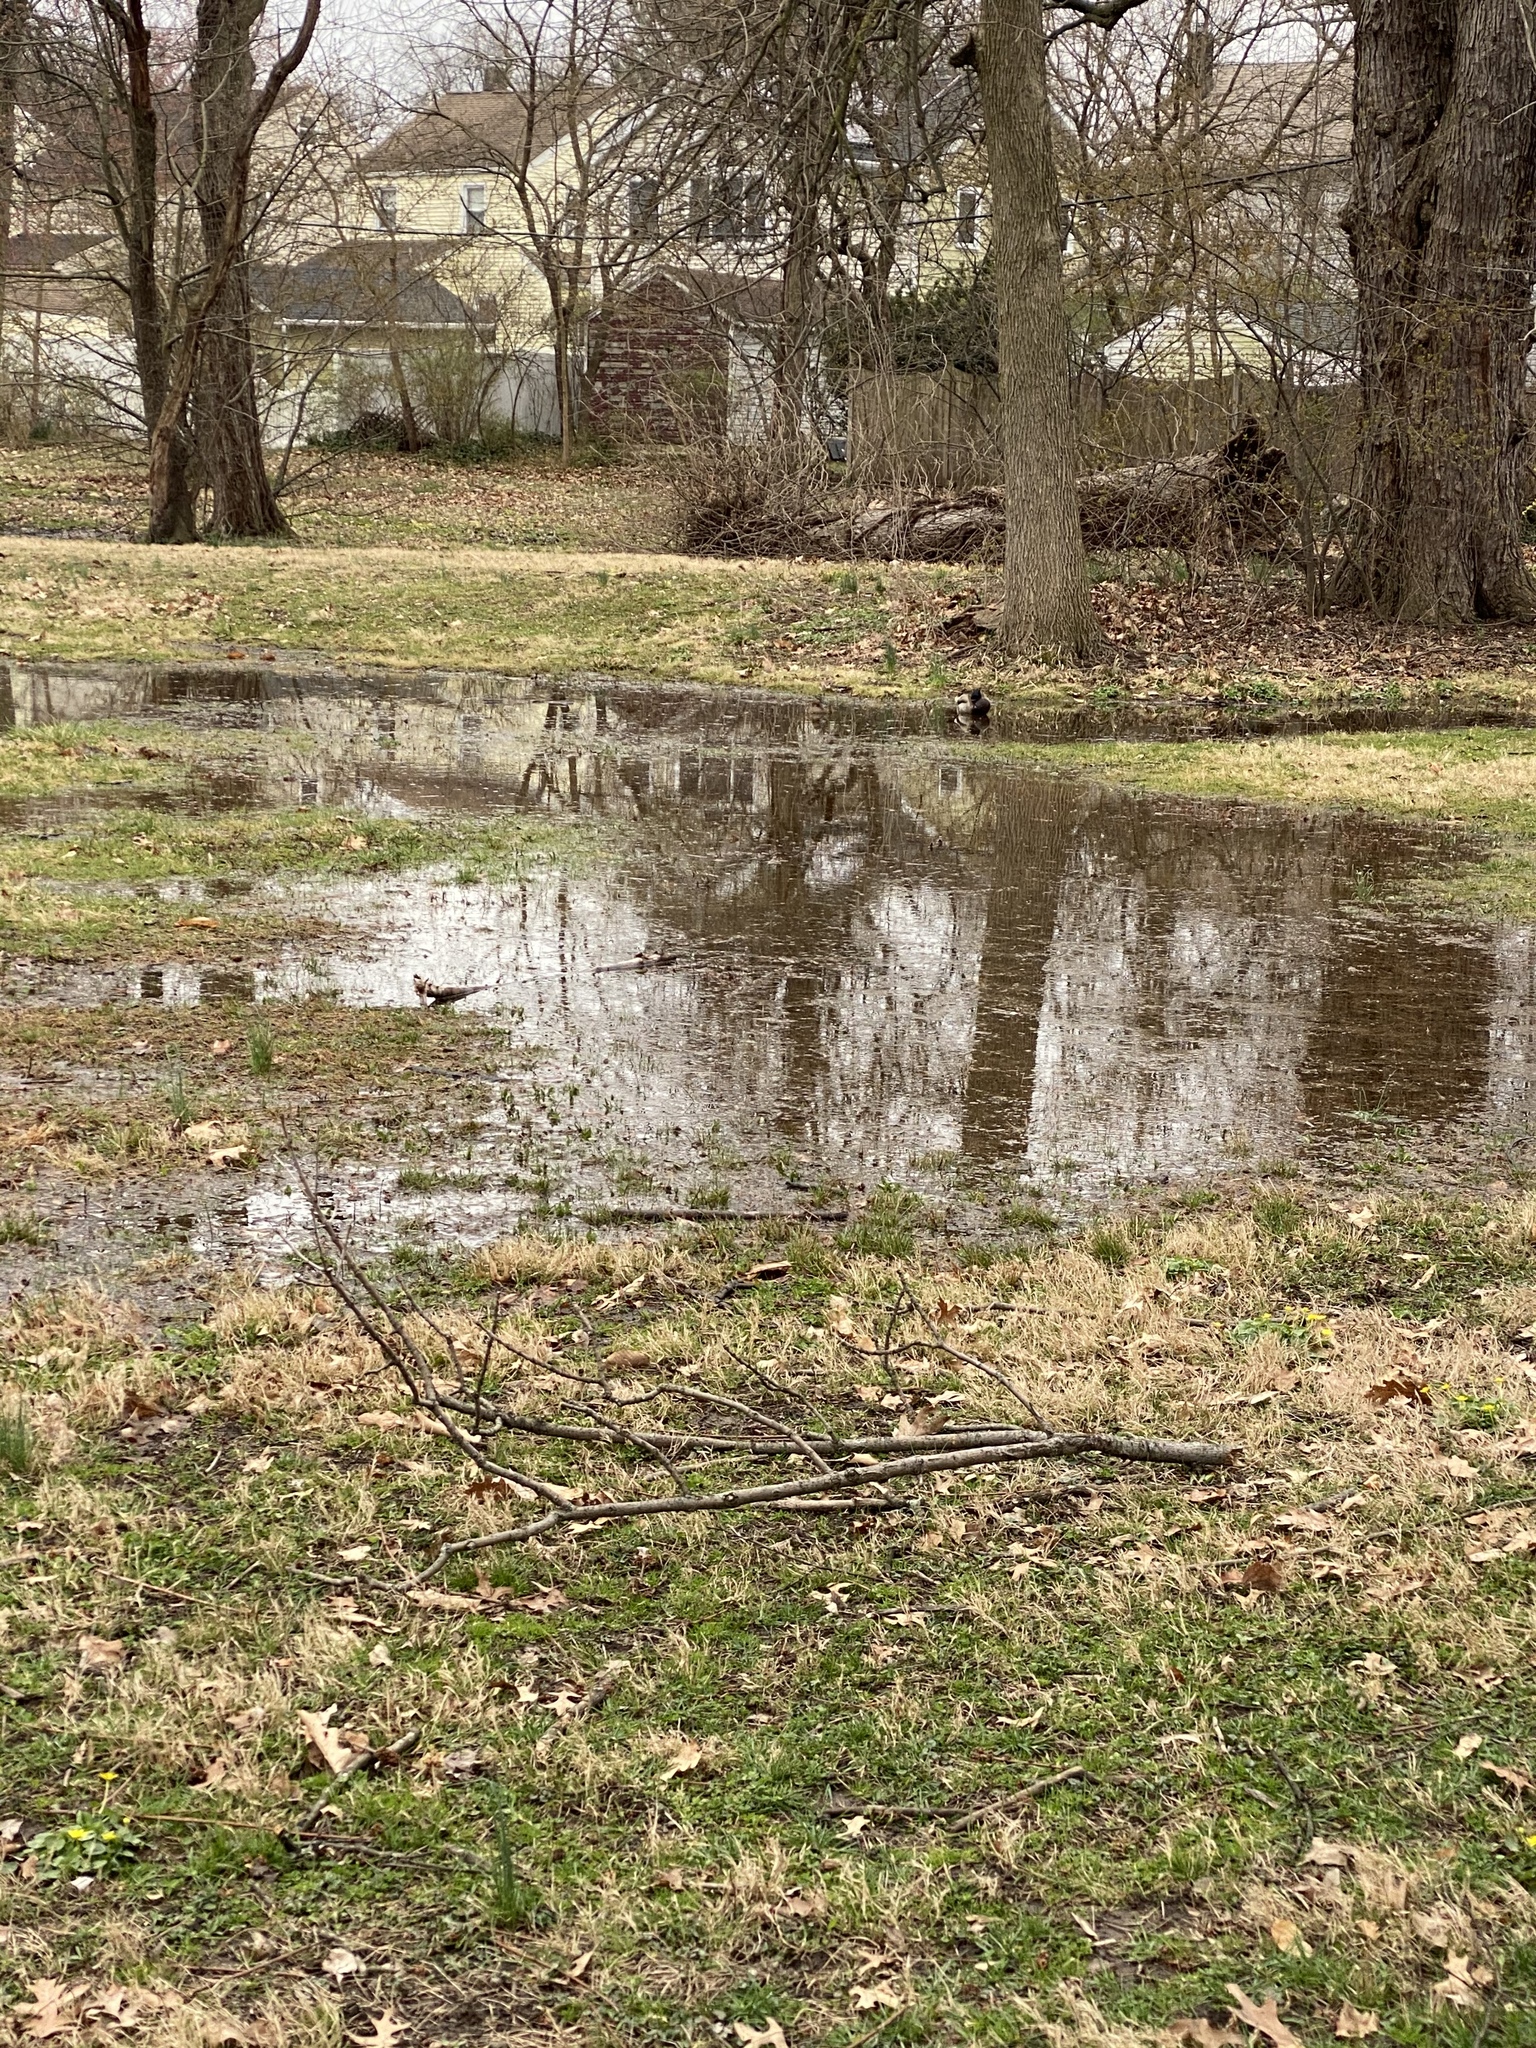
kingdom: Animalia
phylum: Chordata
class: Aves
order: Passeriformes
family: Icteridae
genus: Quiscalus
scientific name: Quiscalus quiscula
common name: Common grackle
